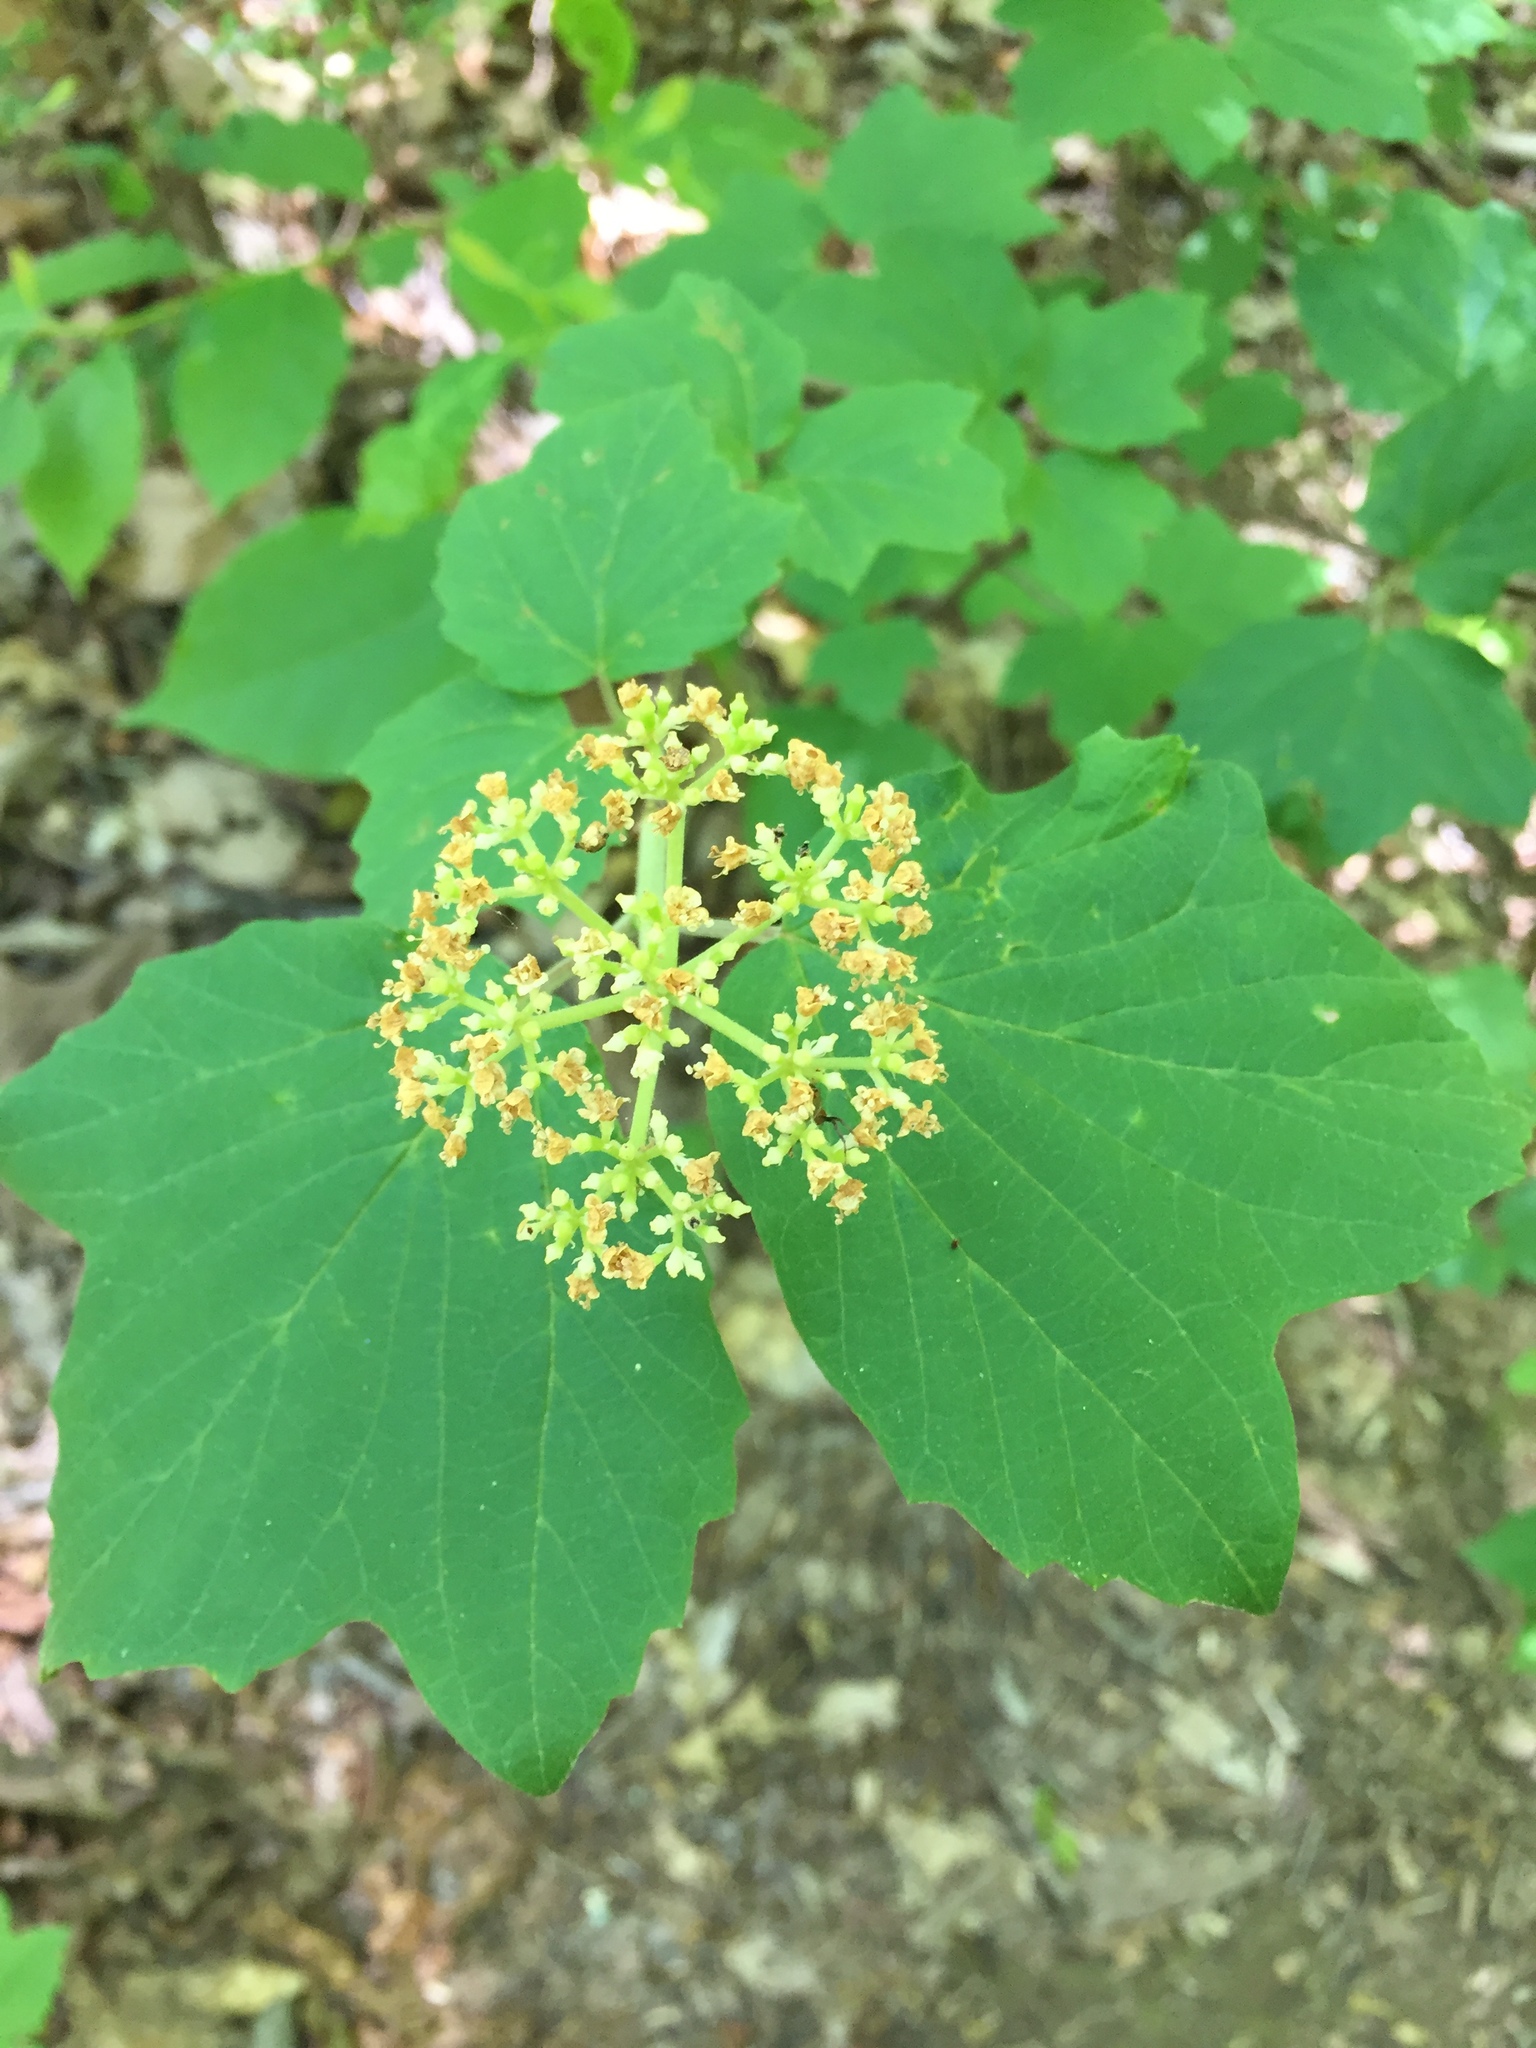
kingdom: Plantae
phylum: Tracheophyta
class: Magnoliopsida
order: Dipsacales
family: Viburnaceae
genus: Viburnum
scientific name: Viburnum acerifolium
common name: Dockmackie
